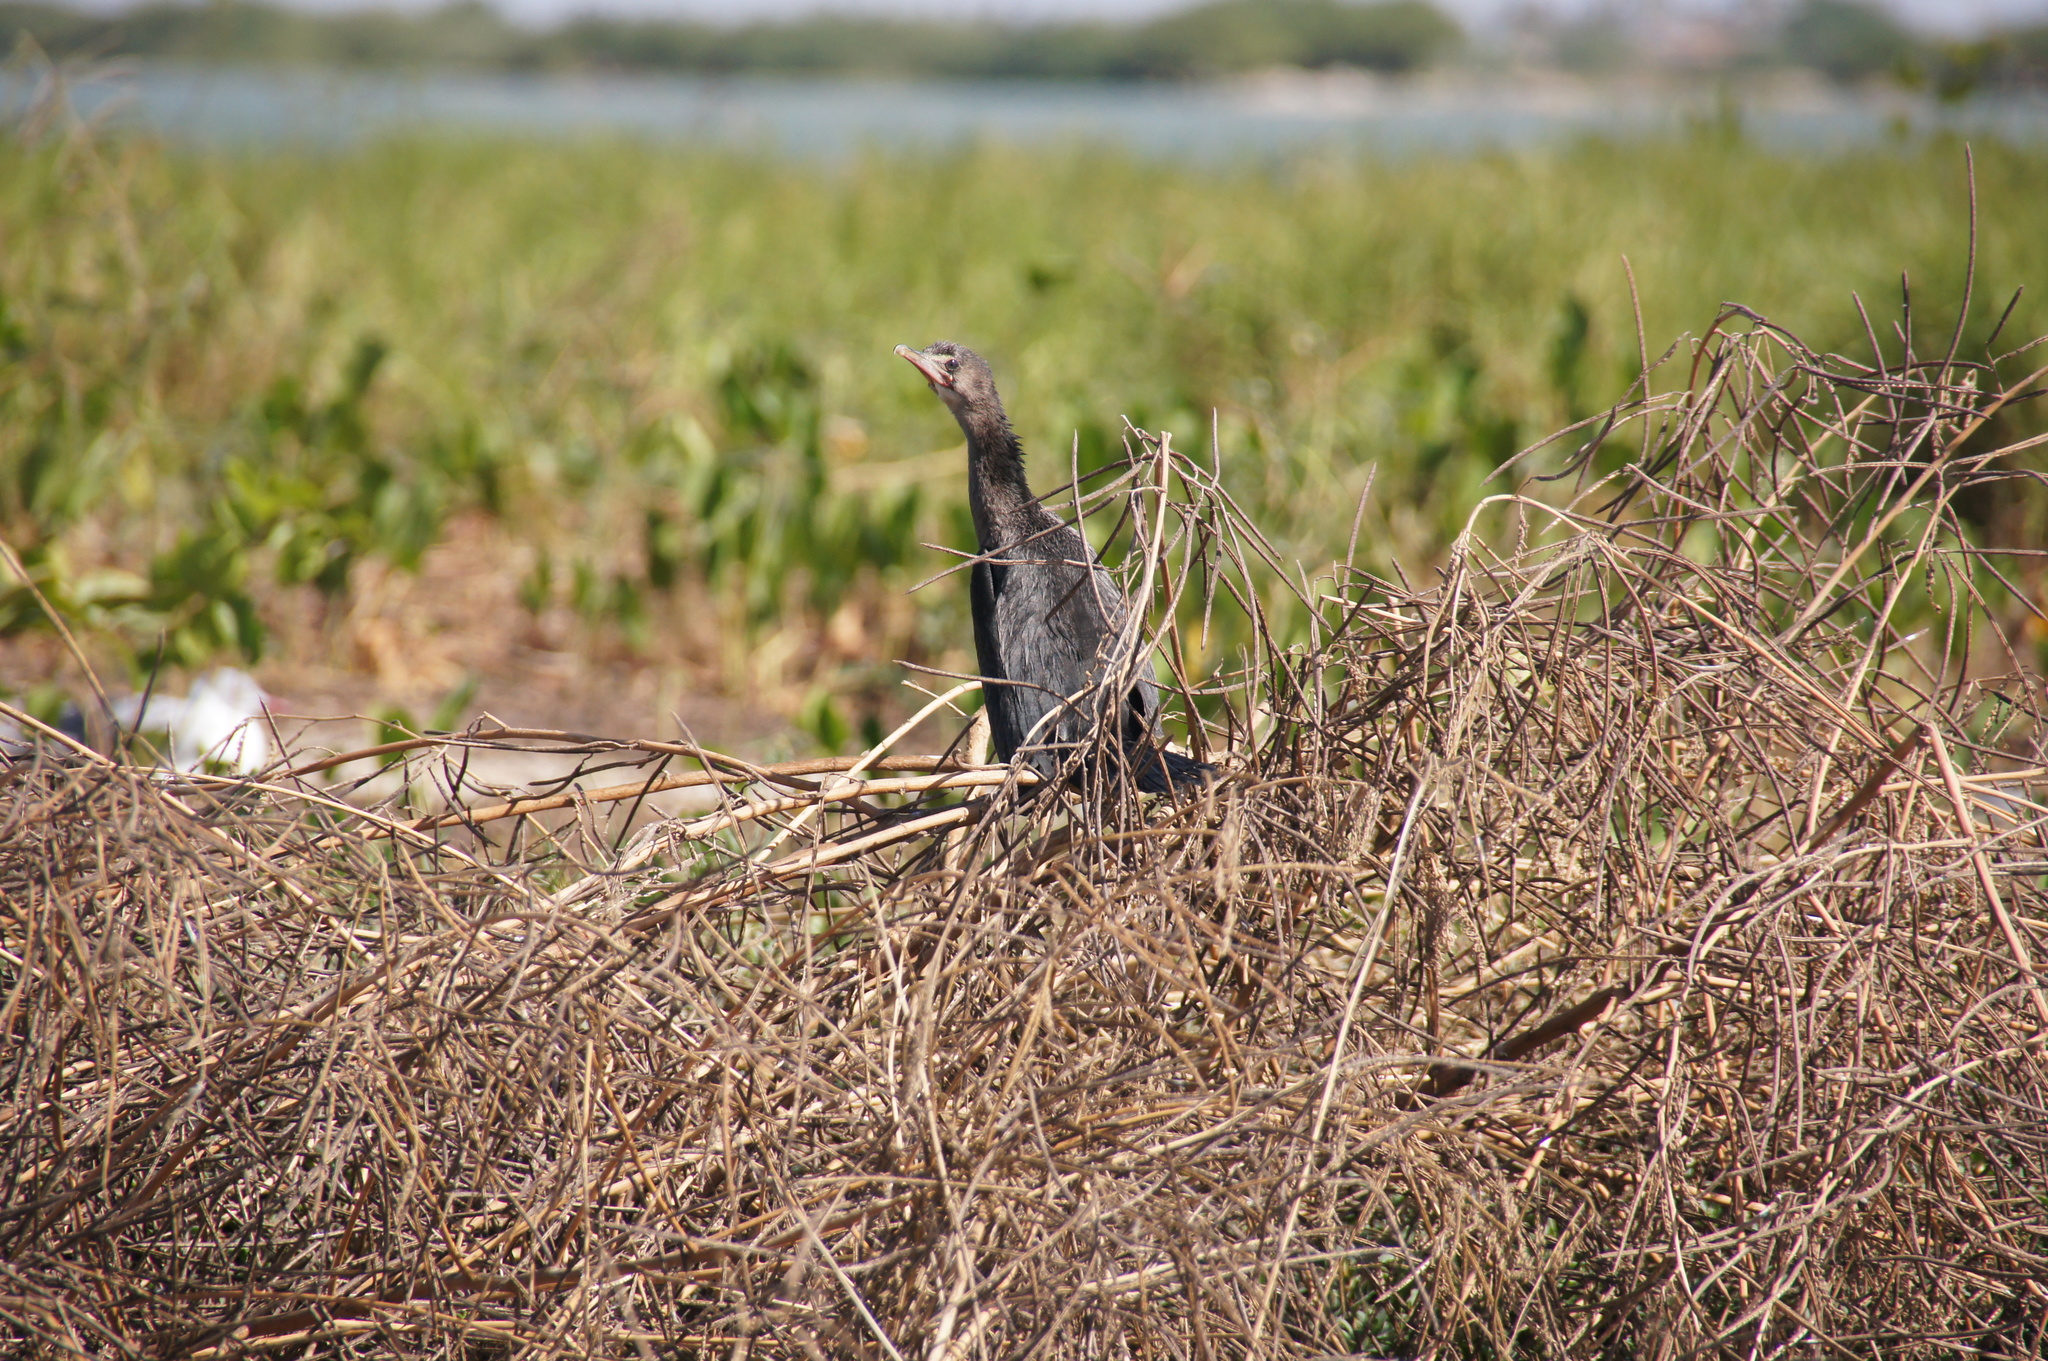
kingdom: Animalia
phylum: Chordata
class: Aves
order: Suliformes
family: Phalacrocoracidae
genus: Microcarbo
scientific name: Microcarbo africanus
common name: Long-tailed cormorant
